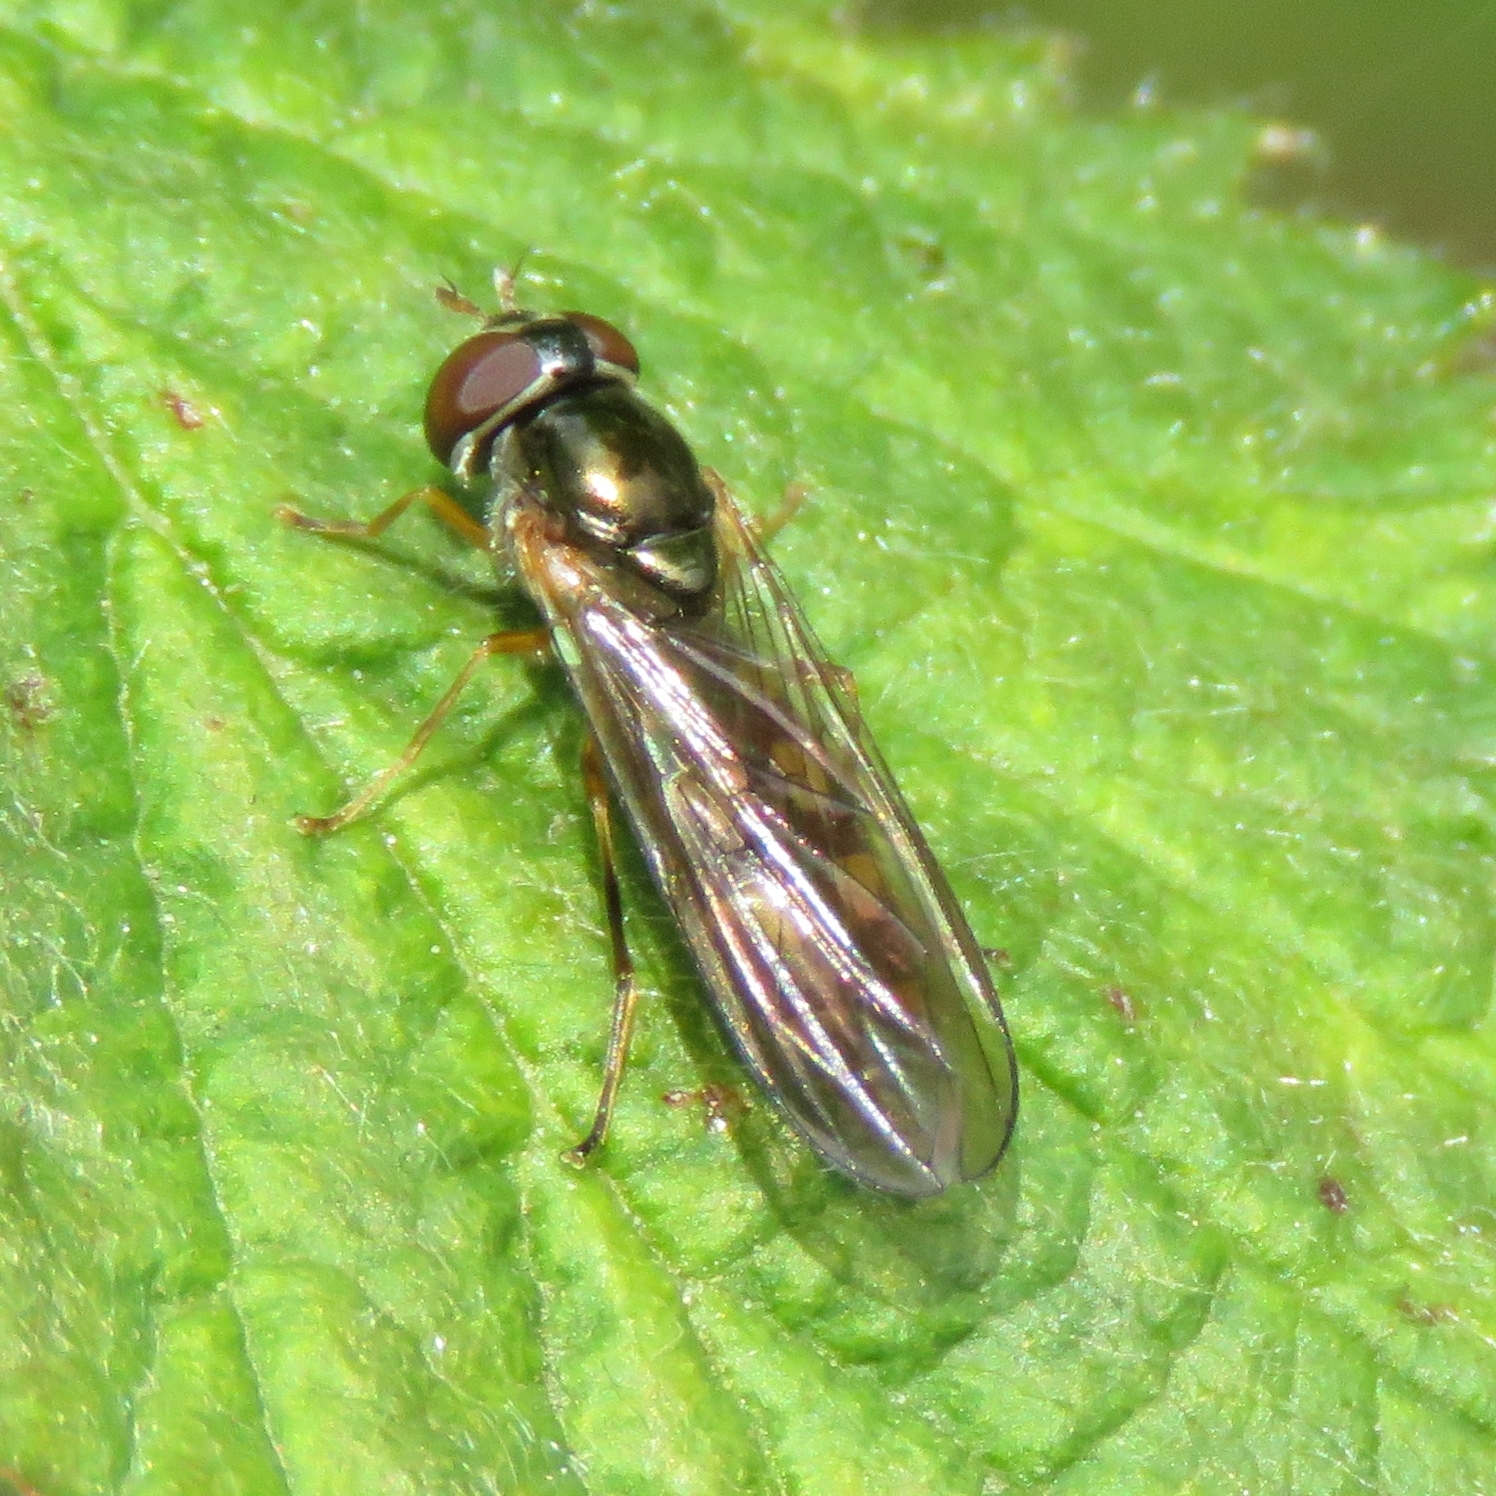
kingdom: Animalia
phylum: Arthropoda
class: Insecta
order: Diptera
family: Syrphidae
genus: Melanostoma
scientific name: Melanostoma scalare
